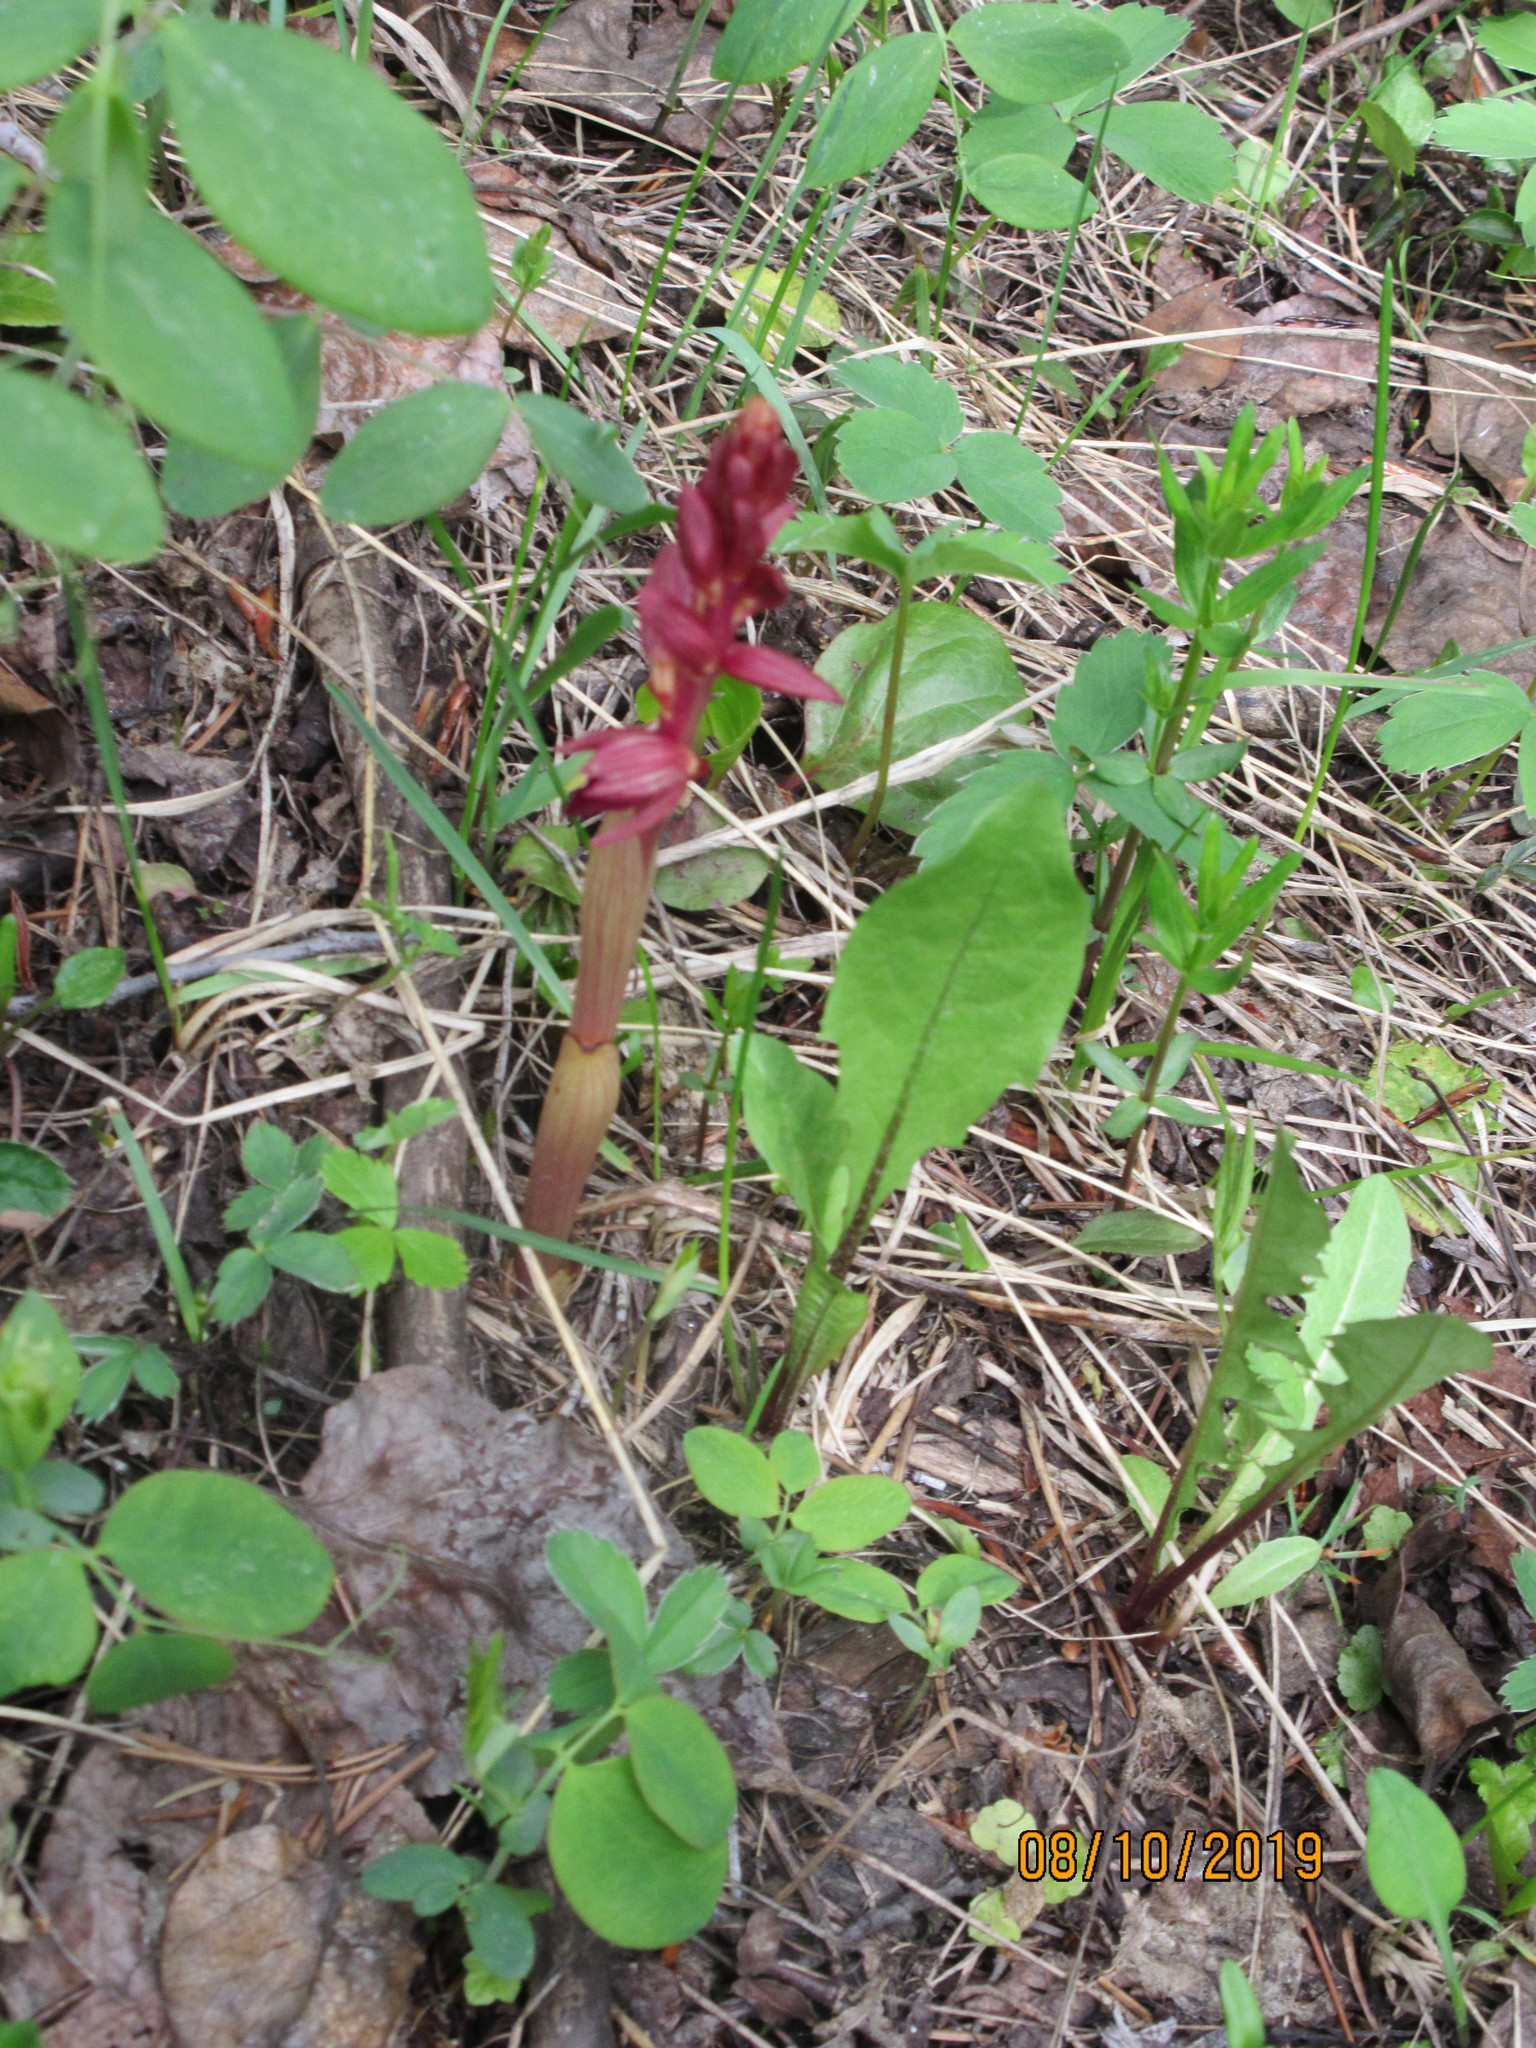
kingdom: Plantae
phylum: Tracheophyta
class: Liliopsida
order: Asparagales
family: Orchidaceae
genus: Corallorhiza
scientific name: Corallorhiza striata
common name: Hooded coralroot
